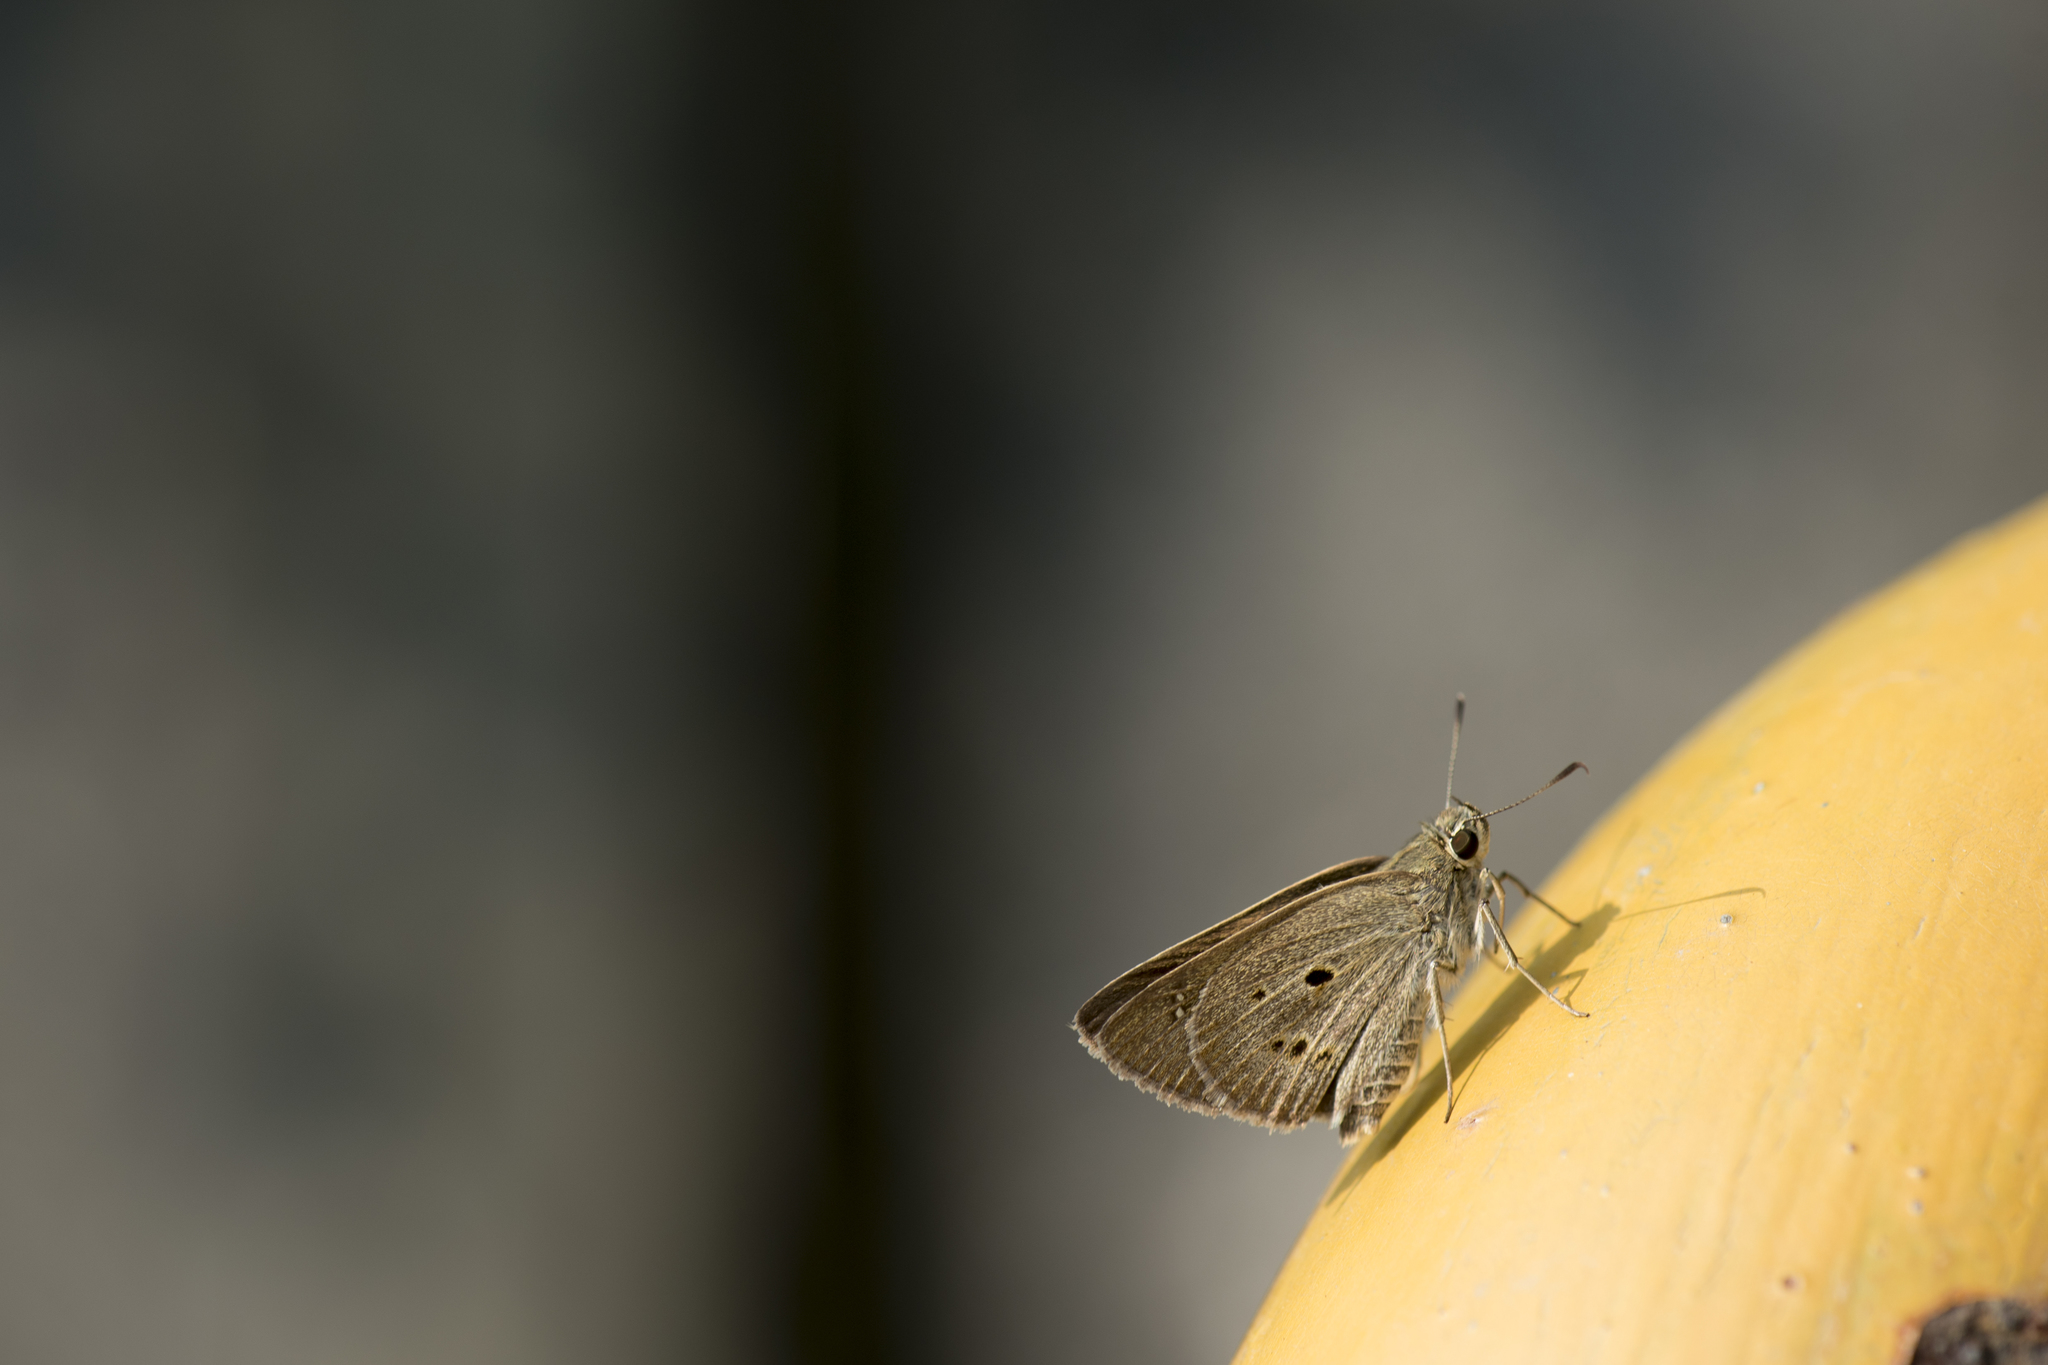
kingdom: Animalia
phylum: Arthropoda
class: Insecta
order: Lepidoptera
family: Hesperiidae
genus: Suastus
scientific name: Suastus gremius
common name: Indian palm bob
